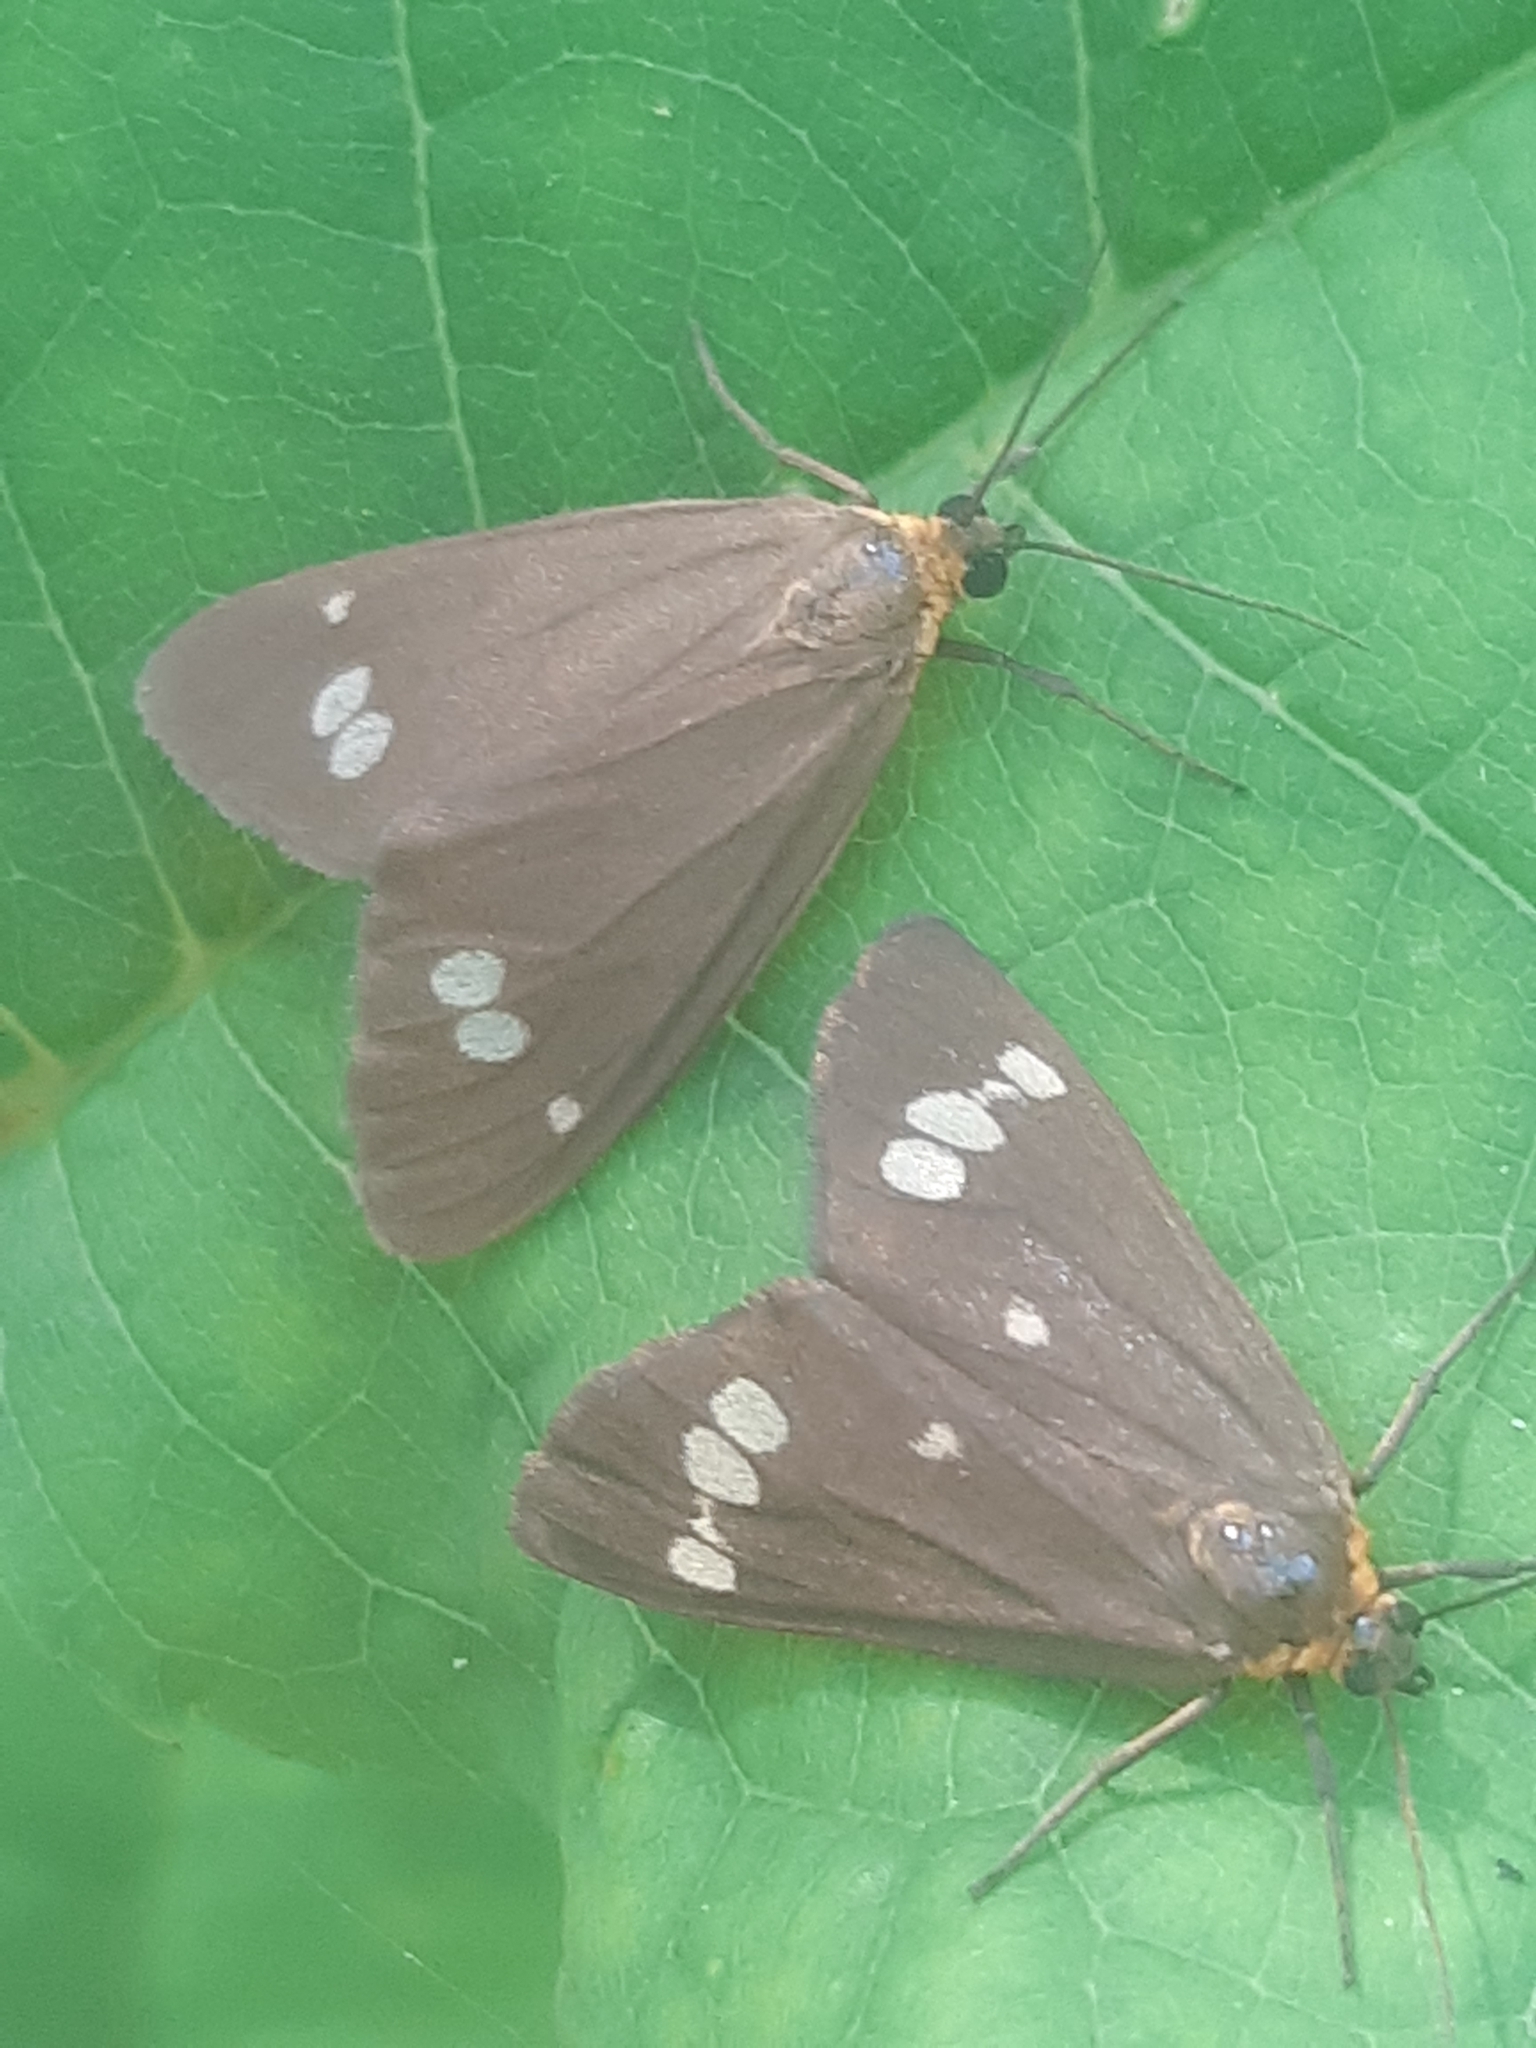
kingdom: Animalia
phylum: Arthropoda
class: Insecta
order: Lepidoptera
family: Erebidae
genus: Dysauxes
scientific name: Dysauxes ancilla
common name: The handmaid
